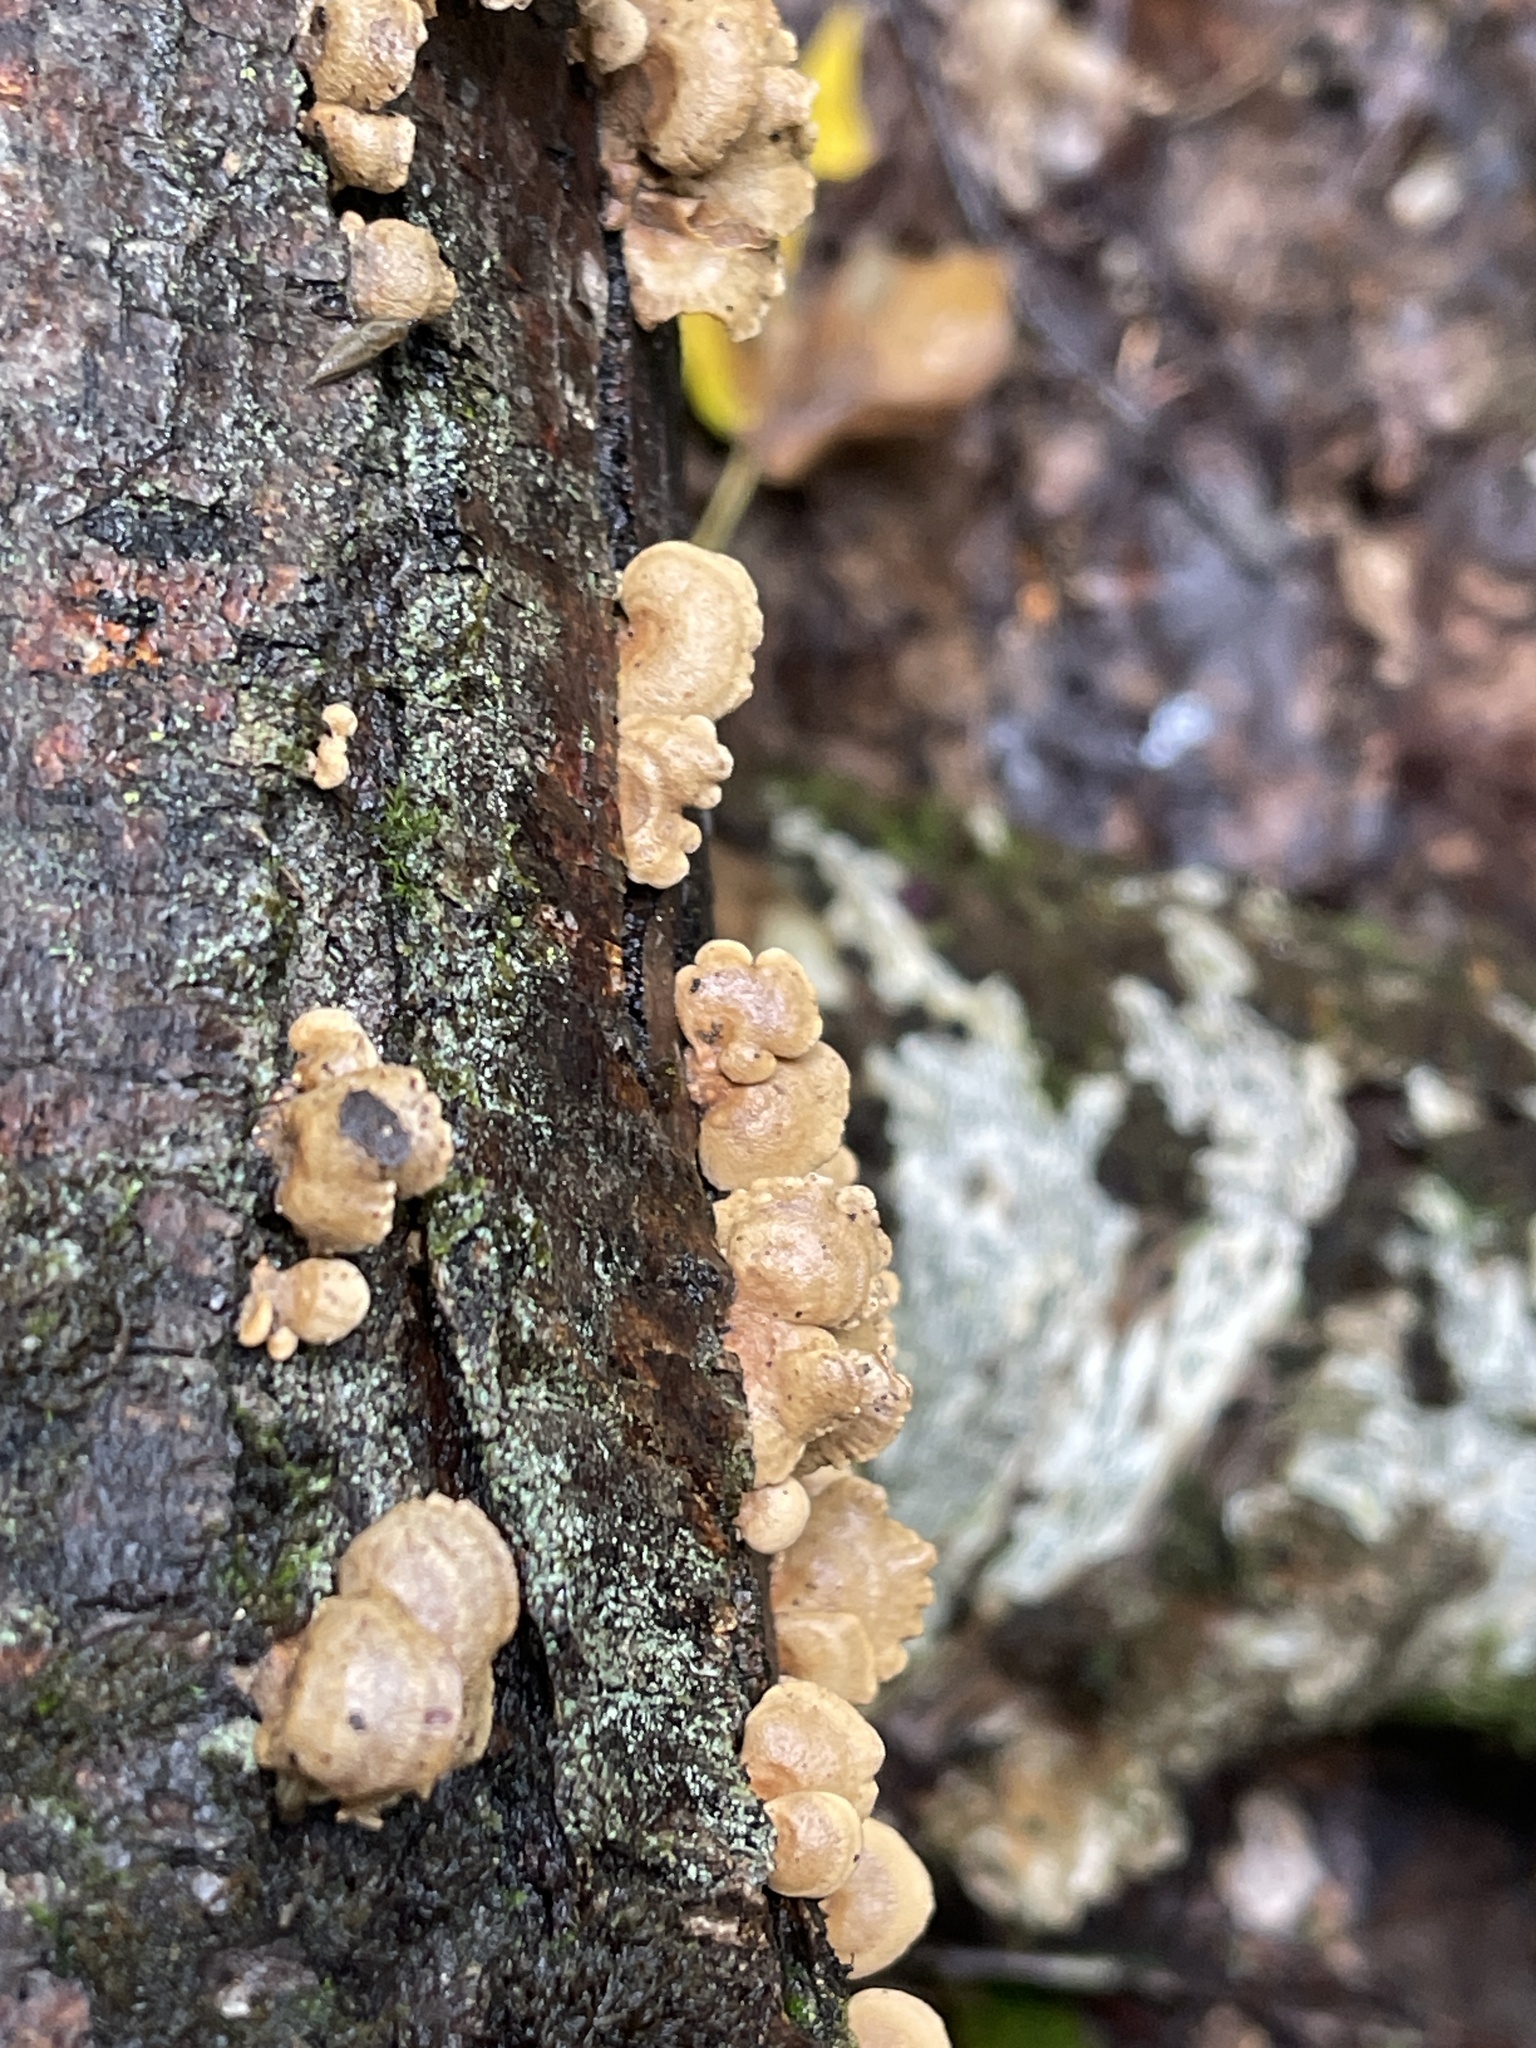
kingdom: Fungi
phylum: Basidiomycota
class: Agaricomycetes
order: Agaricales
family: Mycenaceae
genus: Panellus
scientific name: Panellus stipticus
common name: Bitter oysterling
